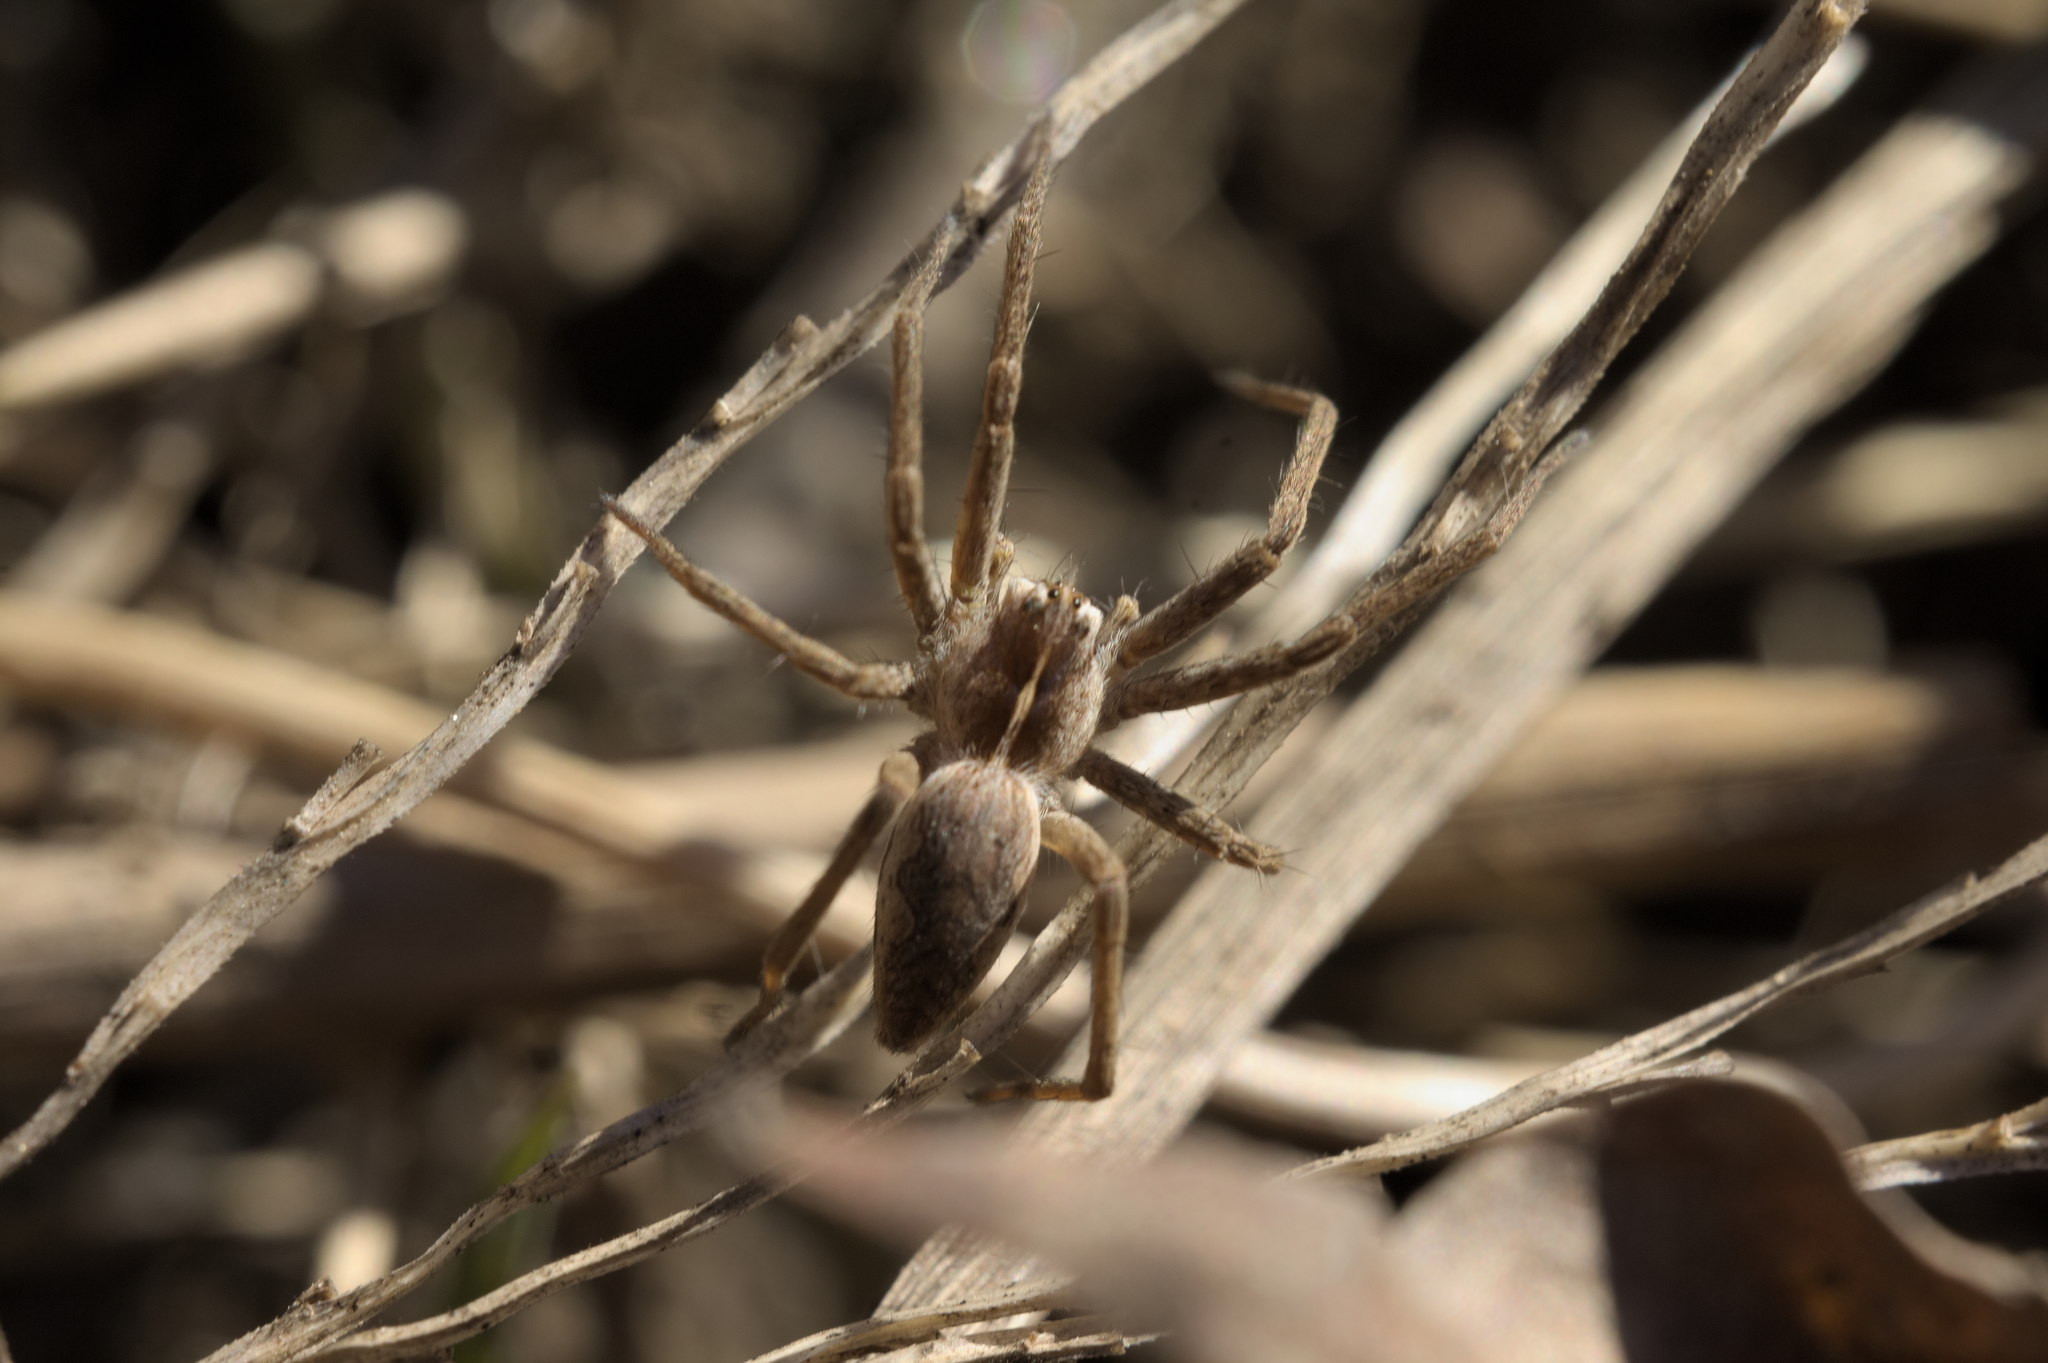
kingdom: Animalia
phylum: Arthropoda
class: Arachnida
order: Araneae
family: Pisauridae
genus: Pisaura
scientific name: Pisaura mirabilis
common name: Tent spider
